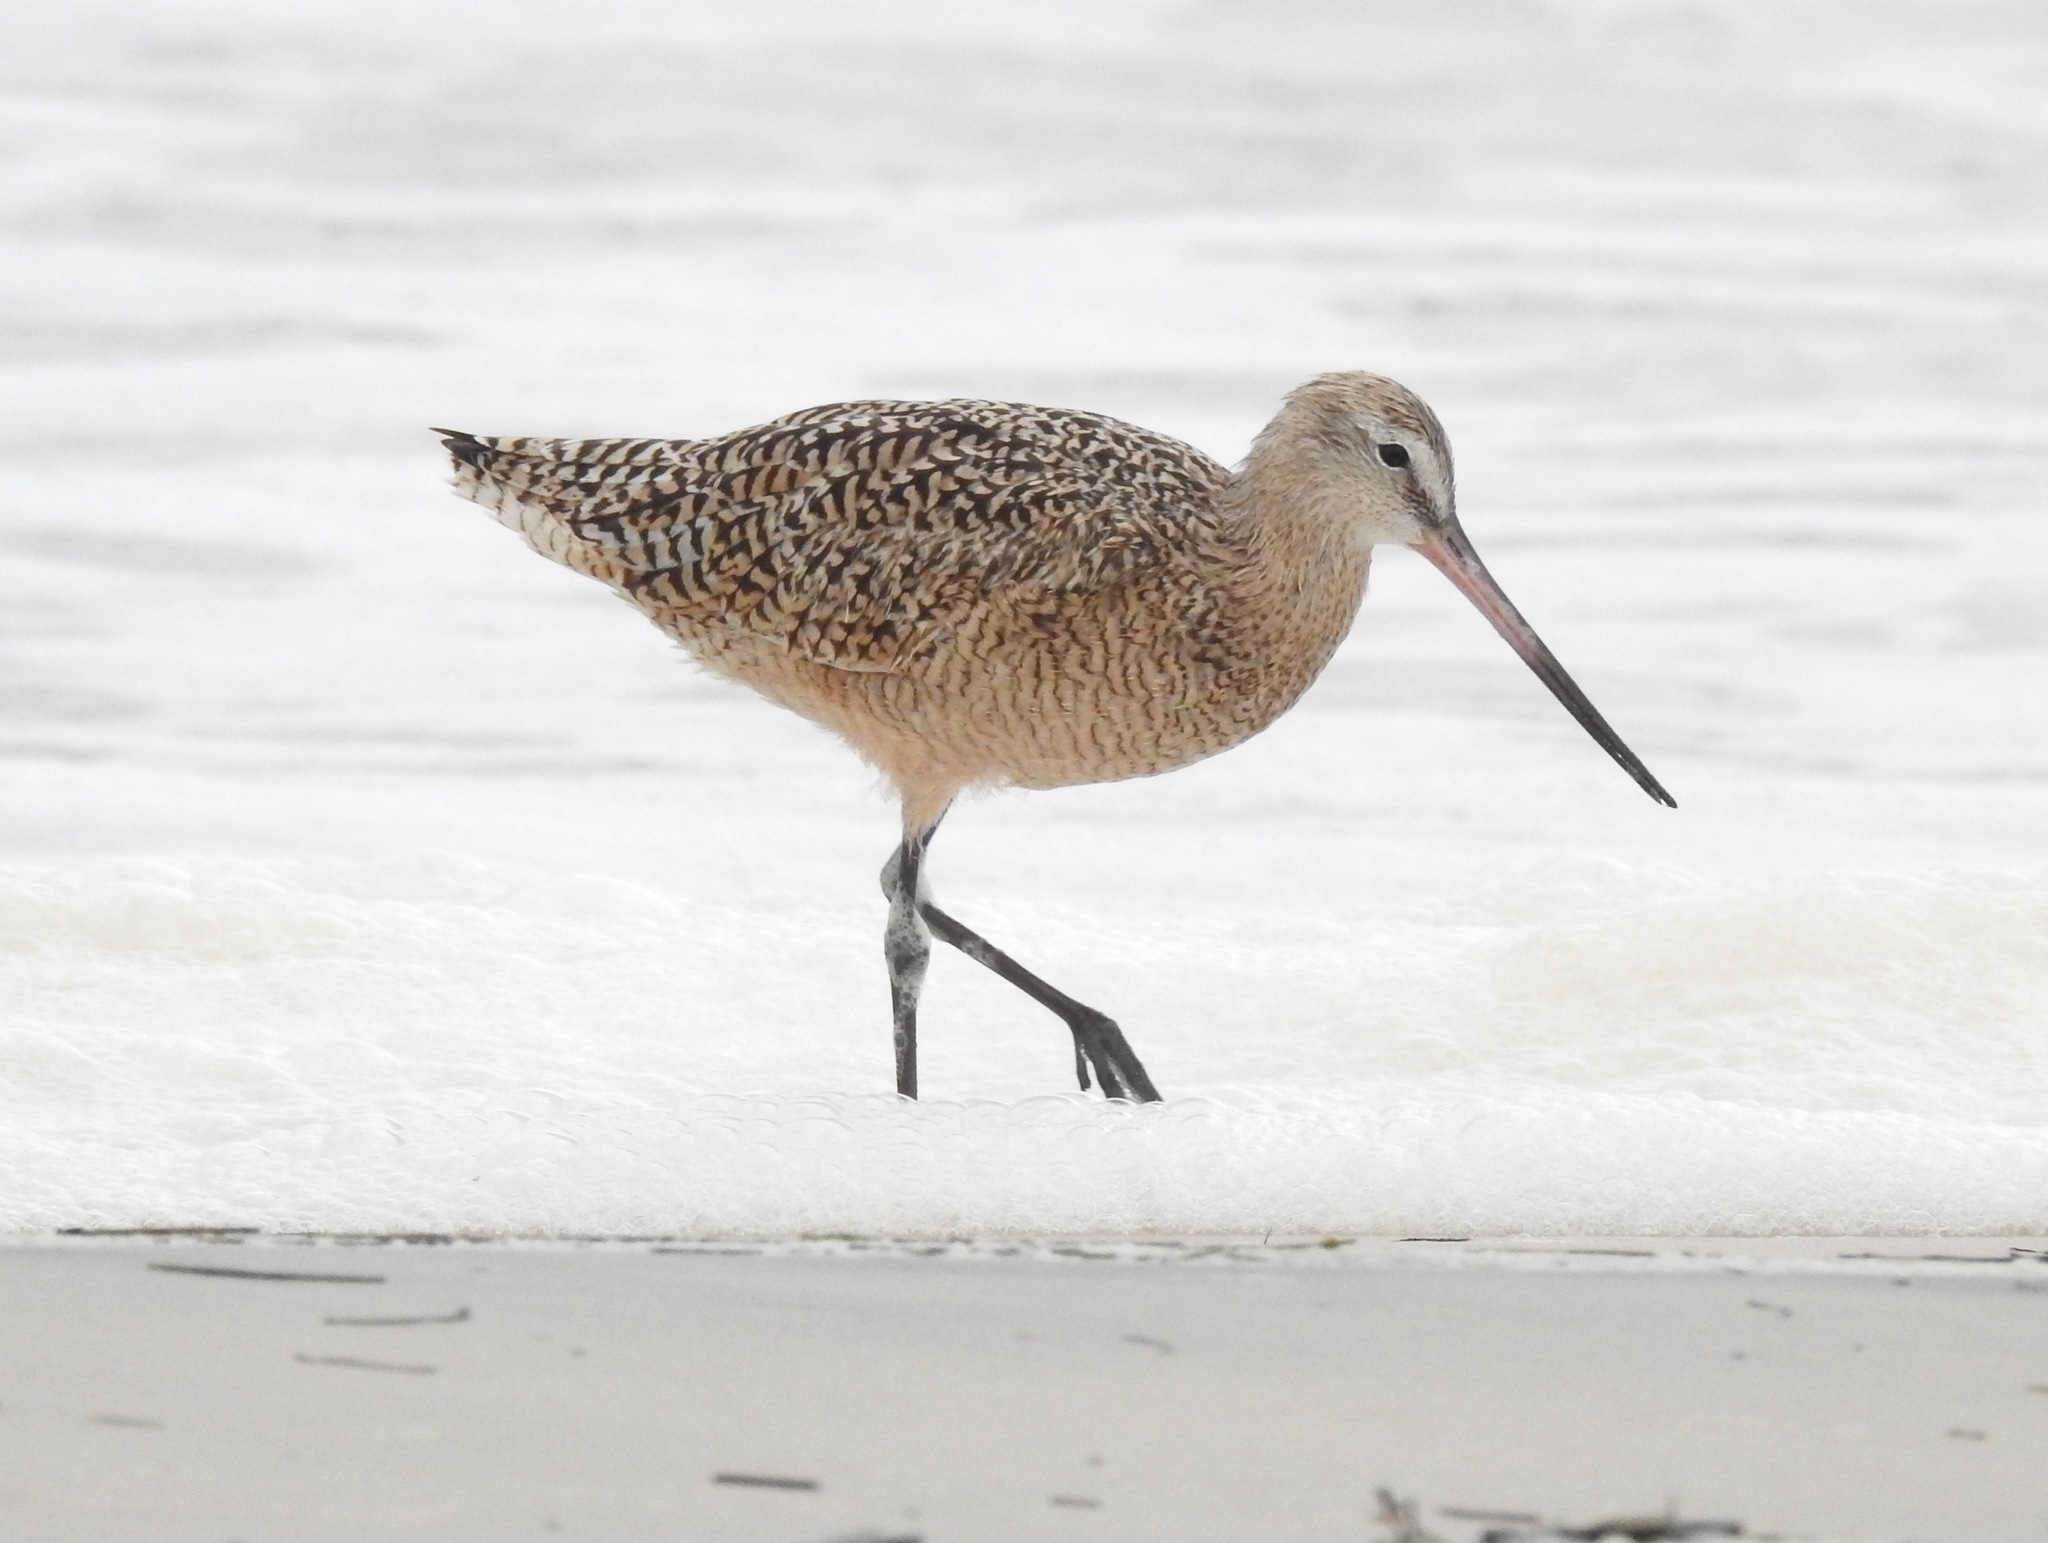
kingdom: Animalia
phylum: Chordata
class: Aves
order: Charadriiformes
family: Scolopacidae
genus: Limosa
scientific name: Limosa fedoa
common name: Marbled godwit
